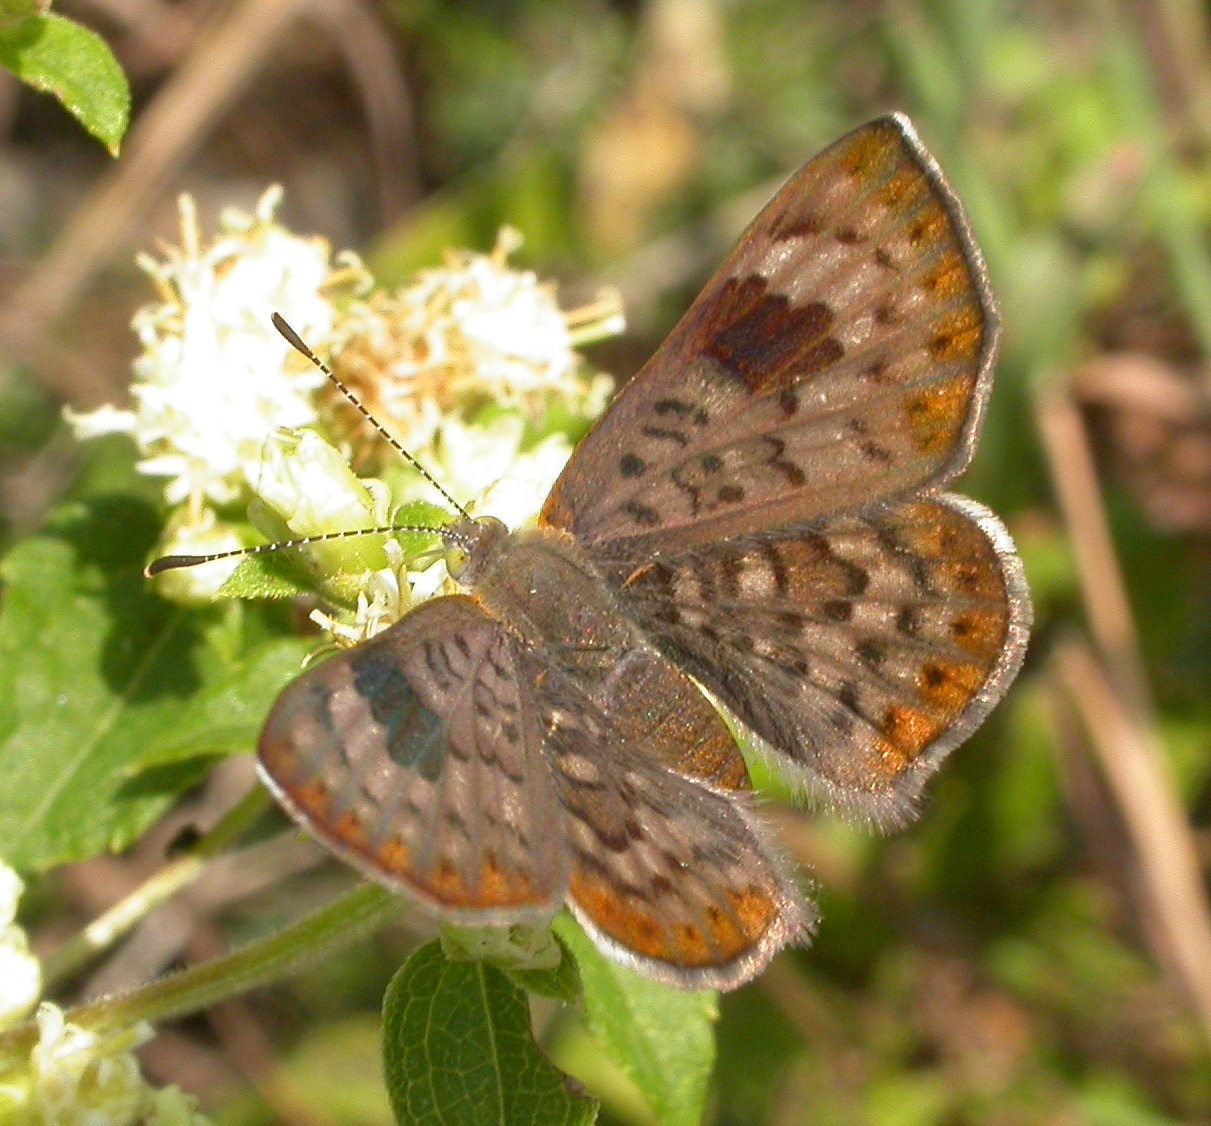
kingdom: Animalia
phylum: Arthropoda
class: Insecta
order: Lepidoptera
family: Riodinidae
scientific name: Riodinidae
